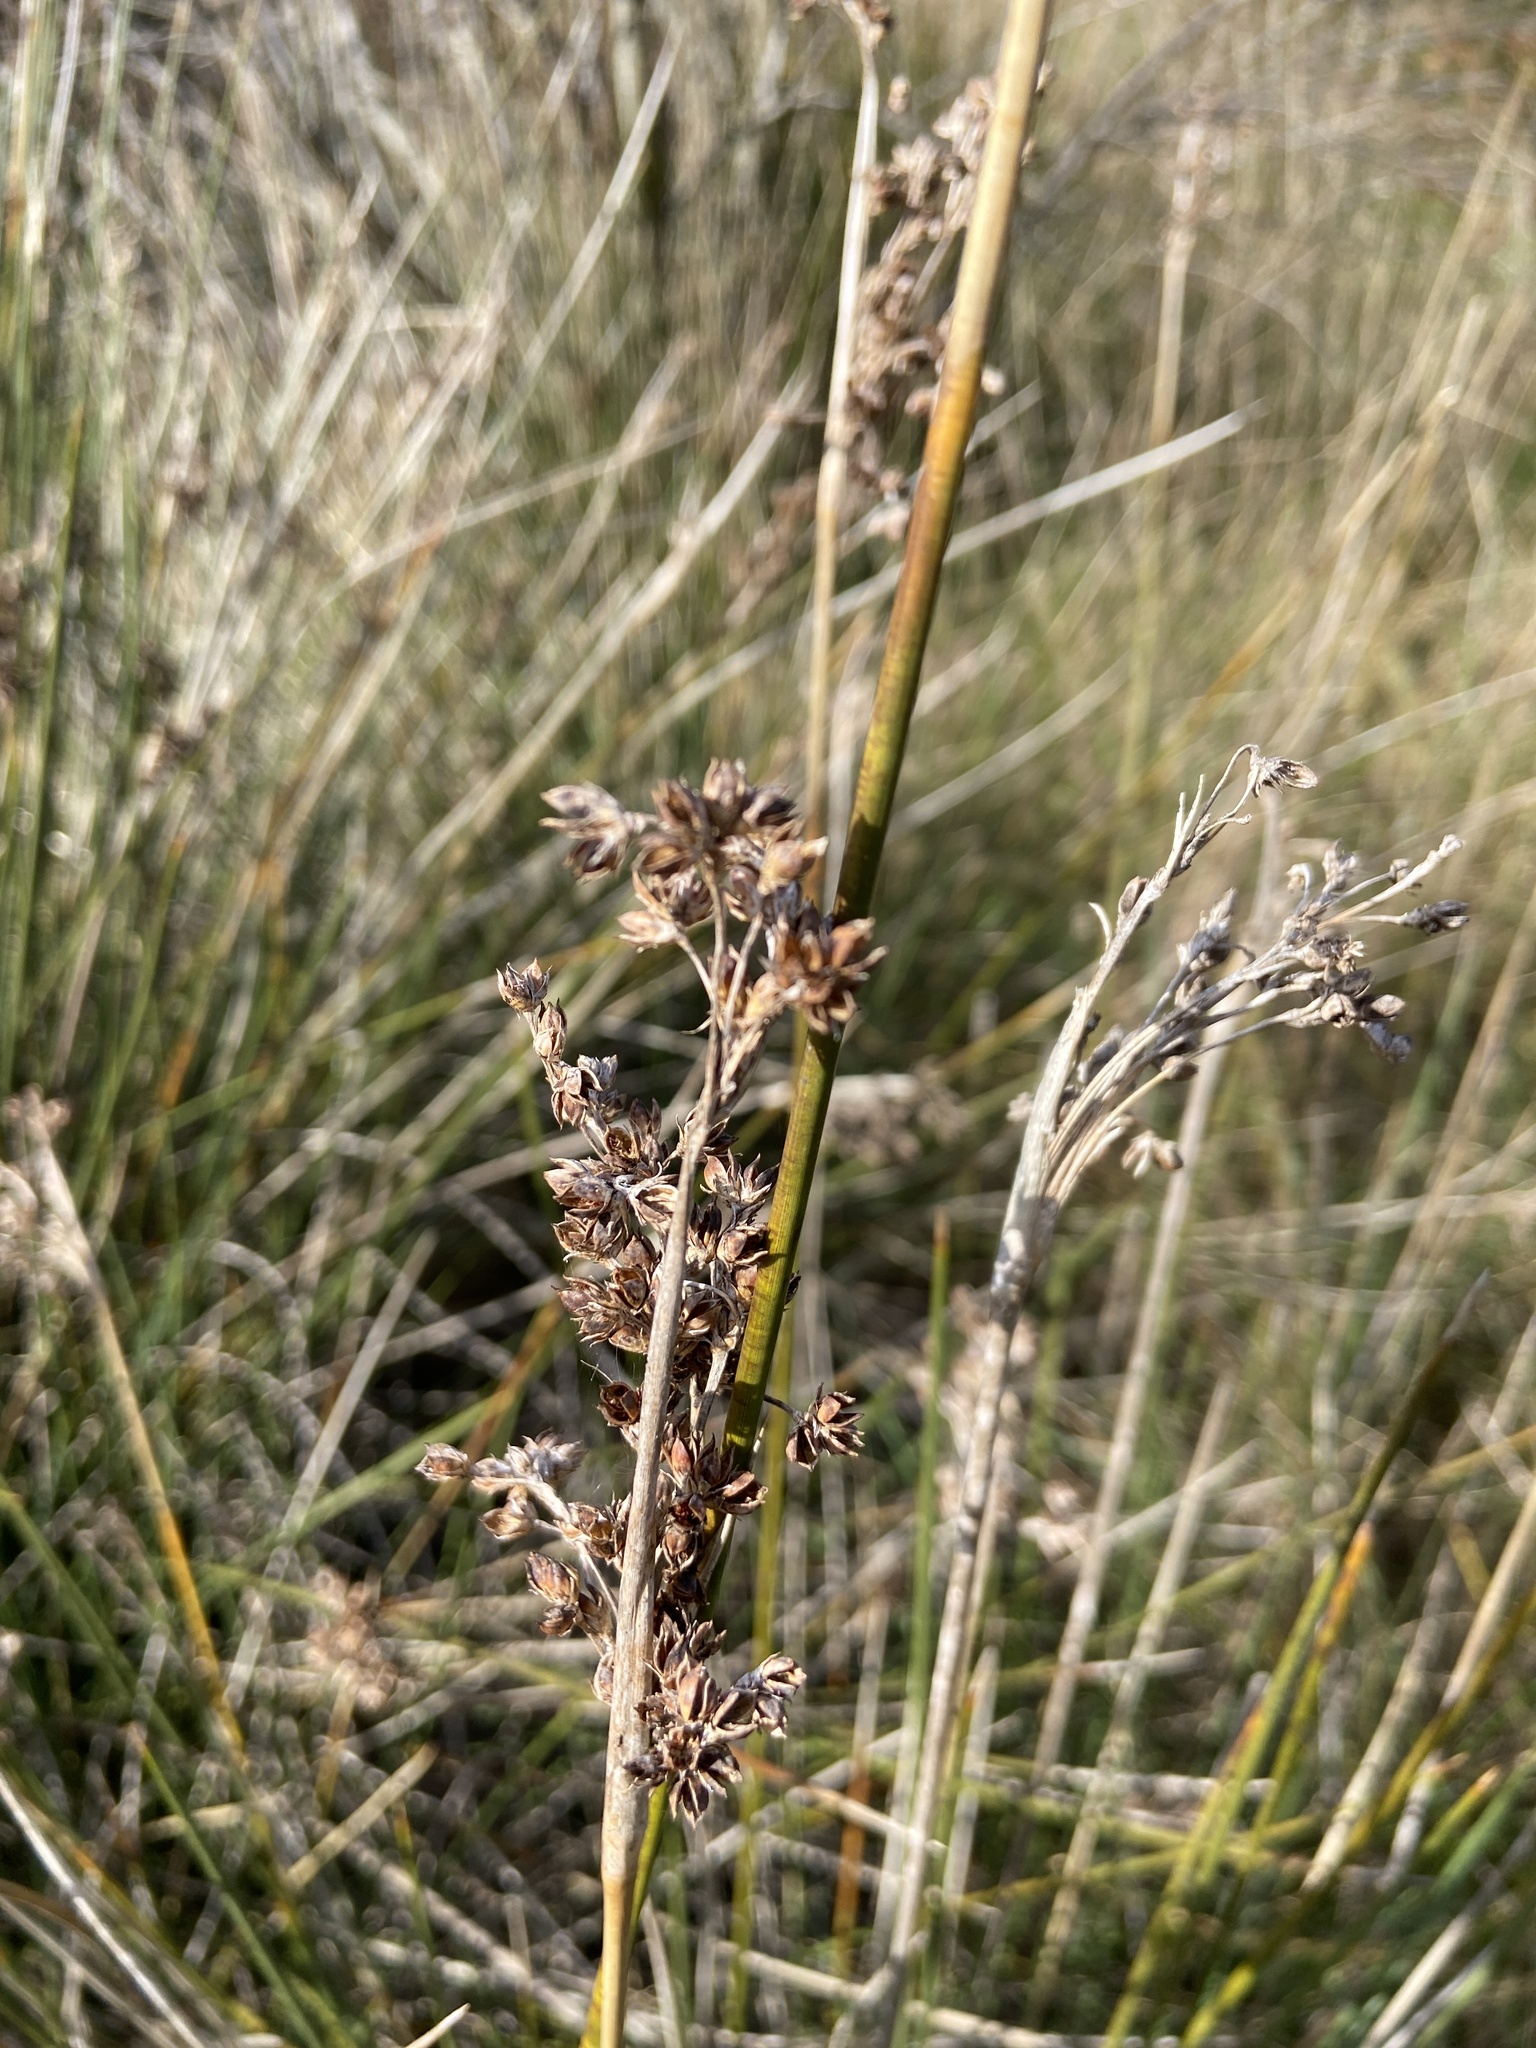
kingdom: Plantae
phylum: Tracheophyta
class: Liliopsida
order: Poales
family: Juncaceae
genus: Juncus
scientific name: Juncus acutus
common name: Sharp rush
